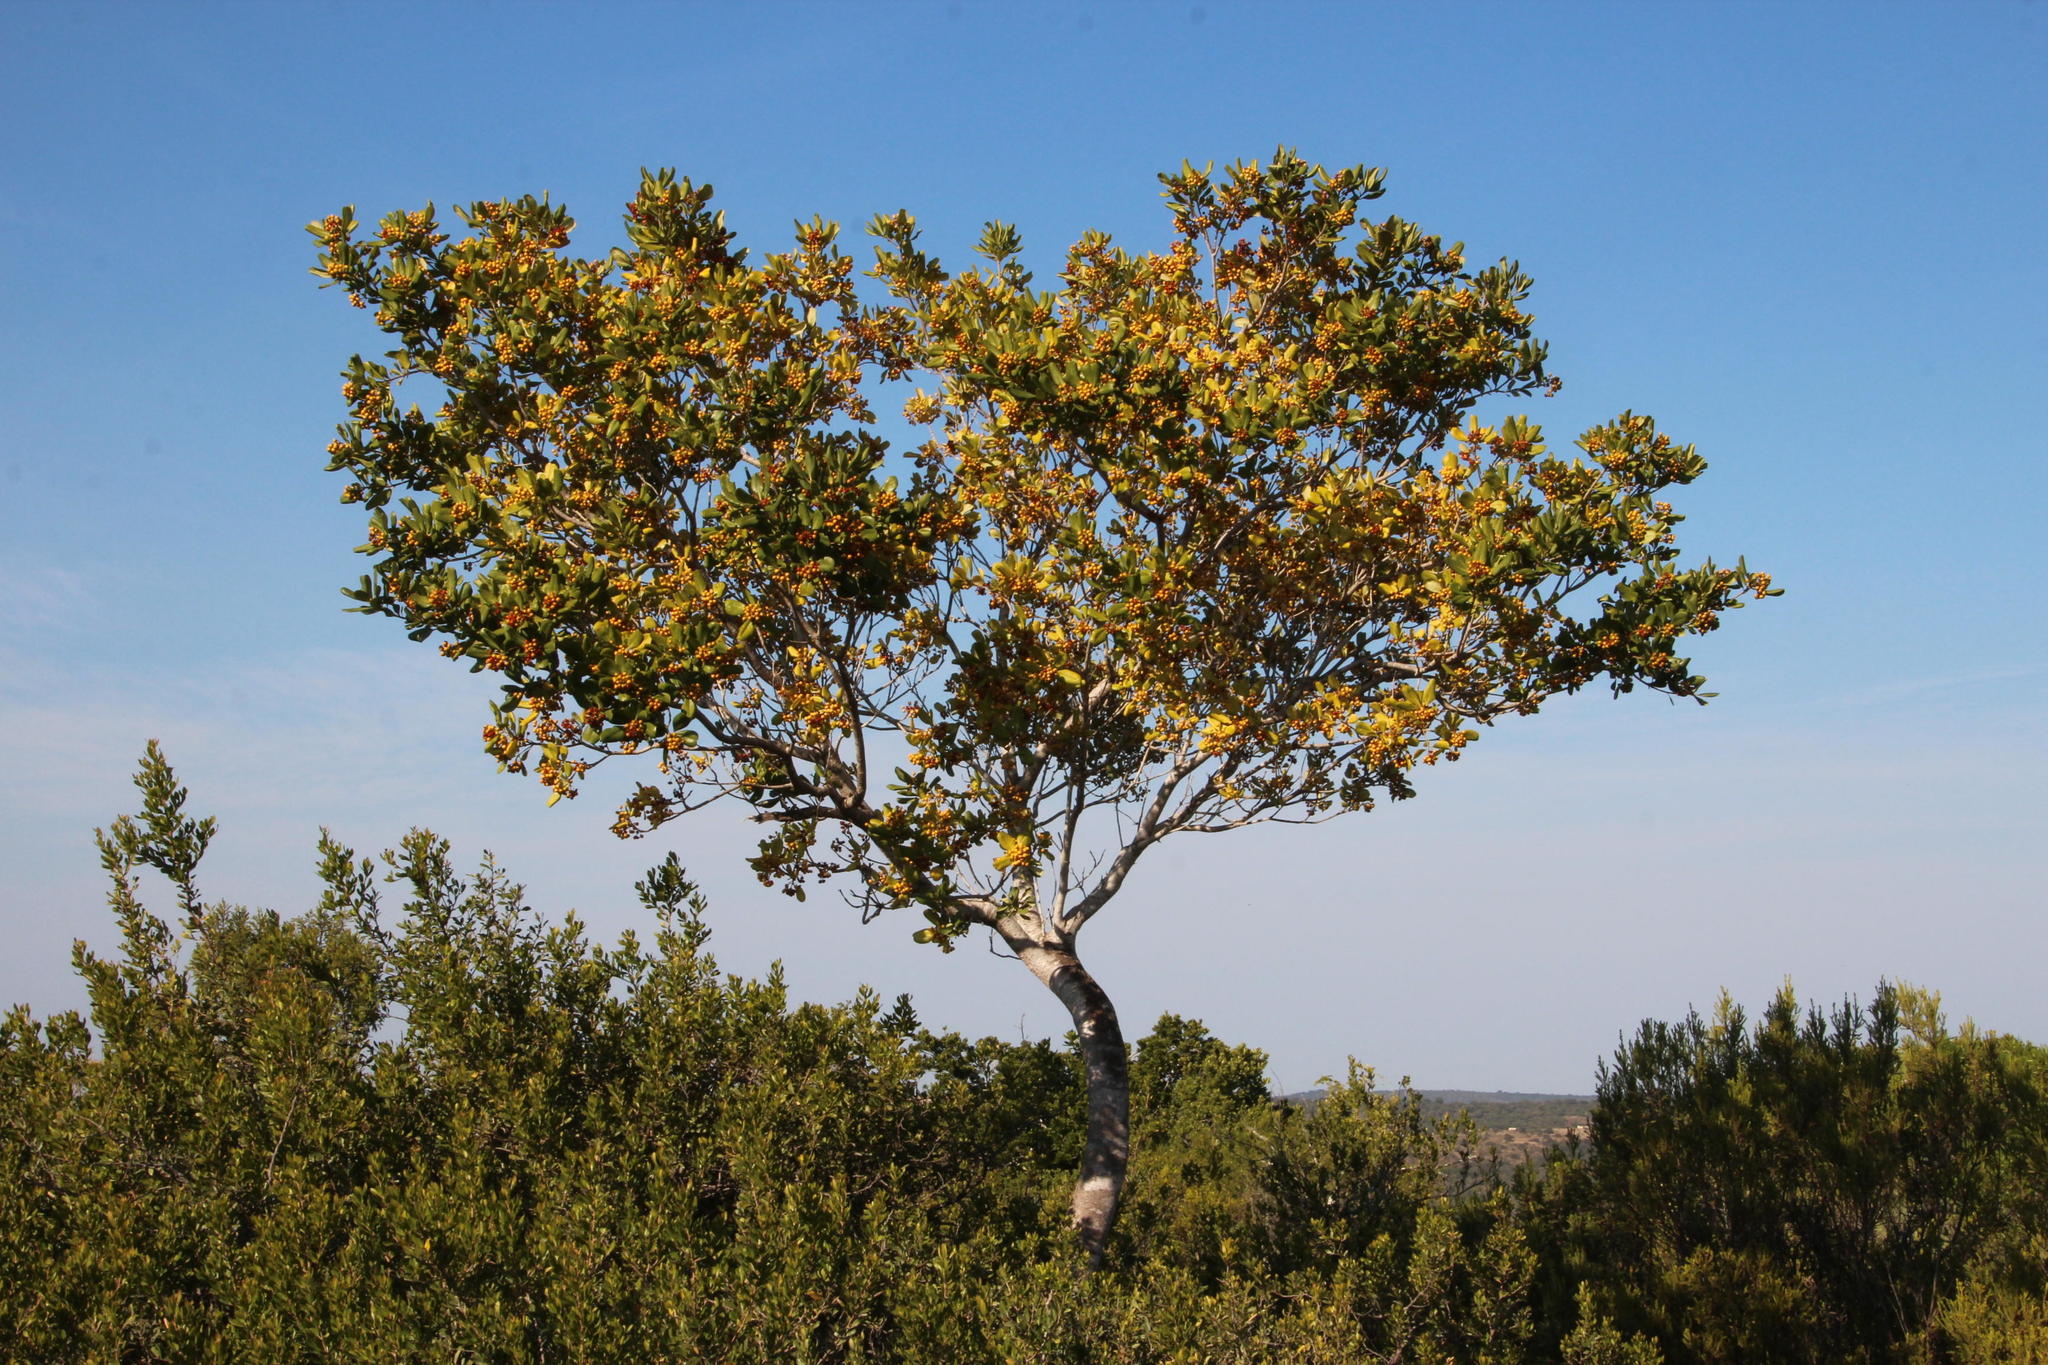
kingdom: Plantae
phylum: Tracheophyta
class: Magnoliopsida
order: Apiales
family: Pittosporaceae
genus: Pittosporum
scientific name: Pittosporum viridiflorum
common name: Cape cheesewood
